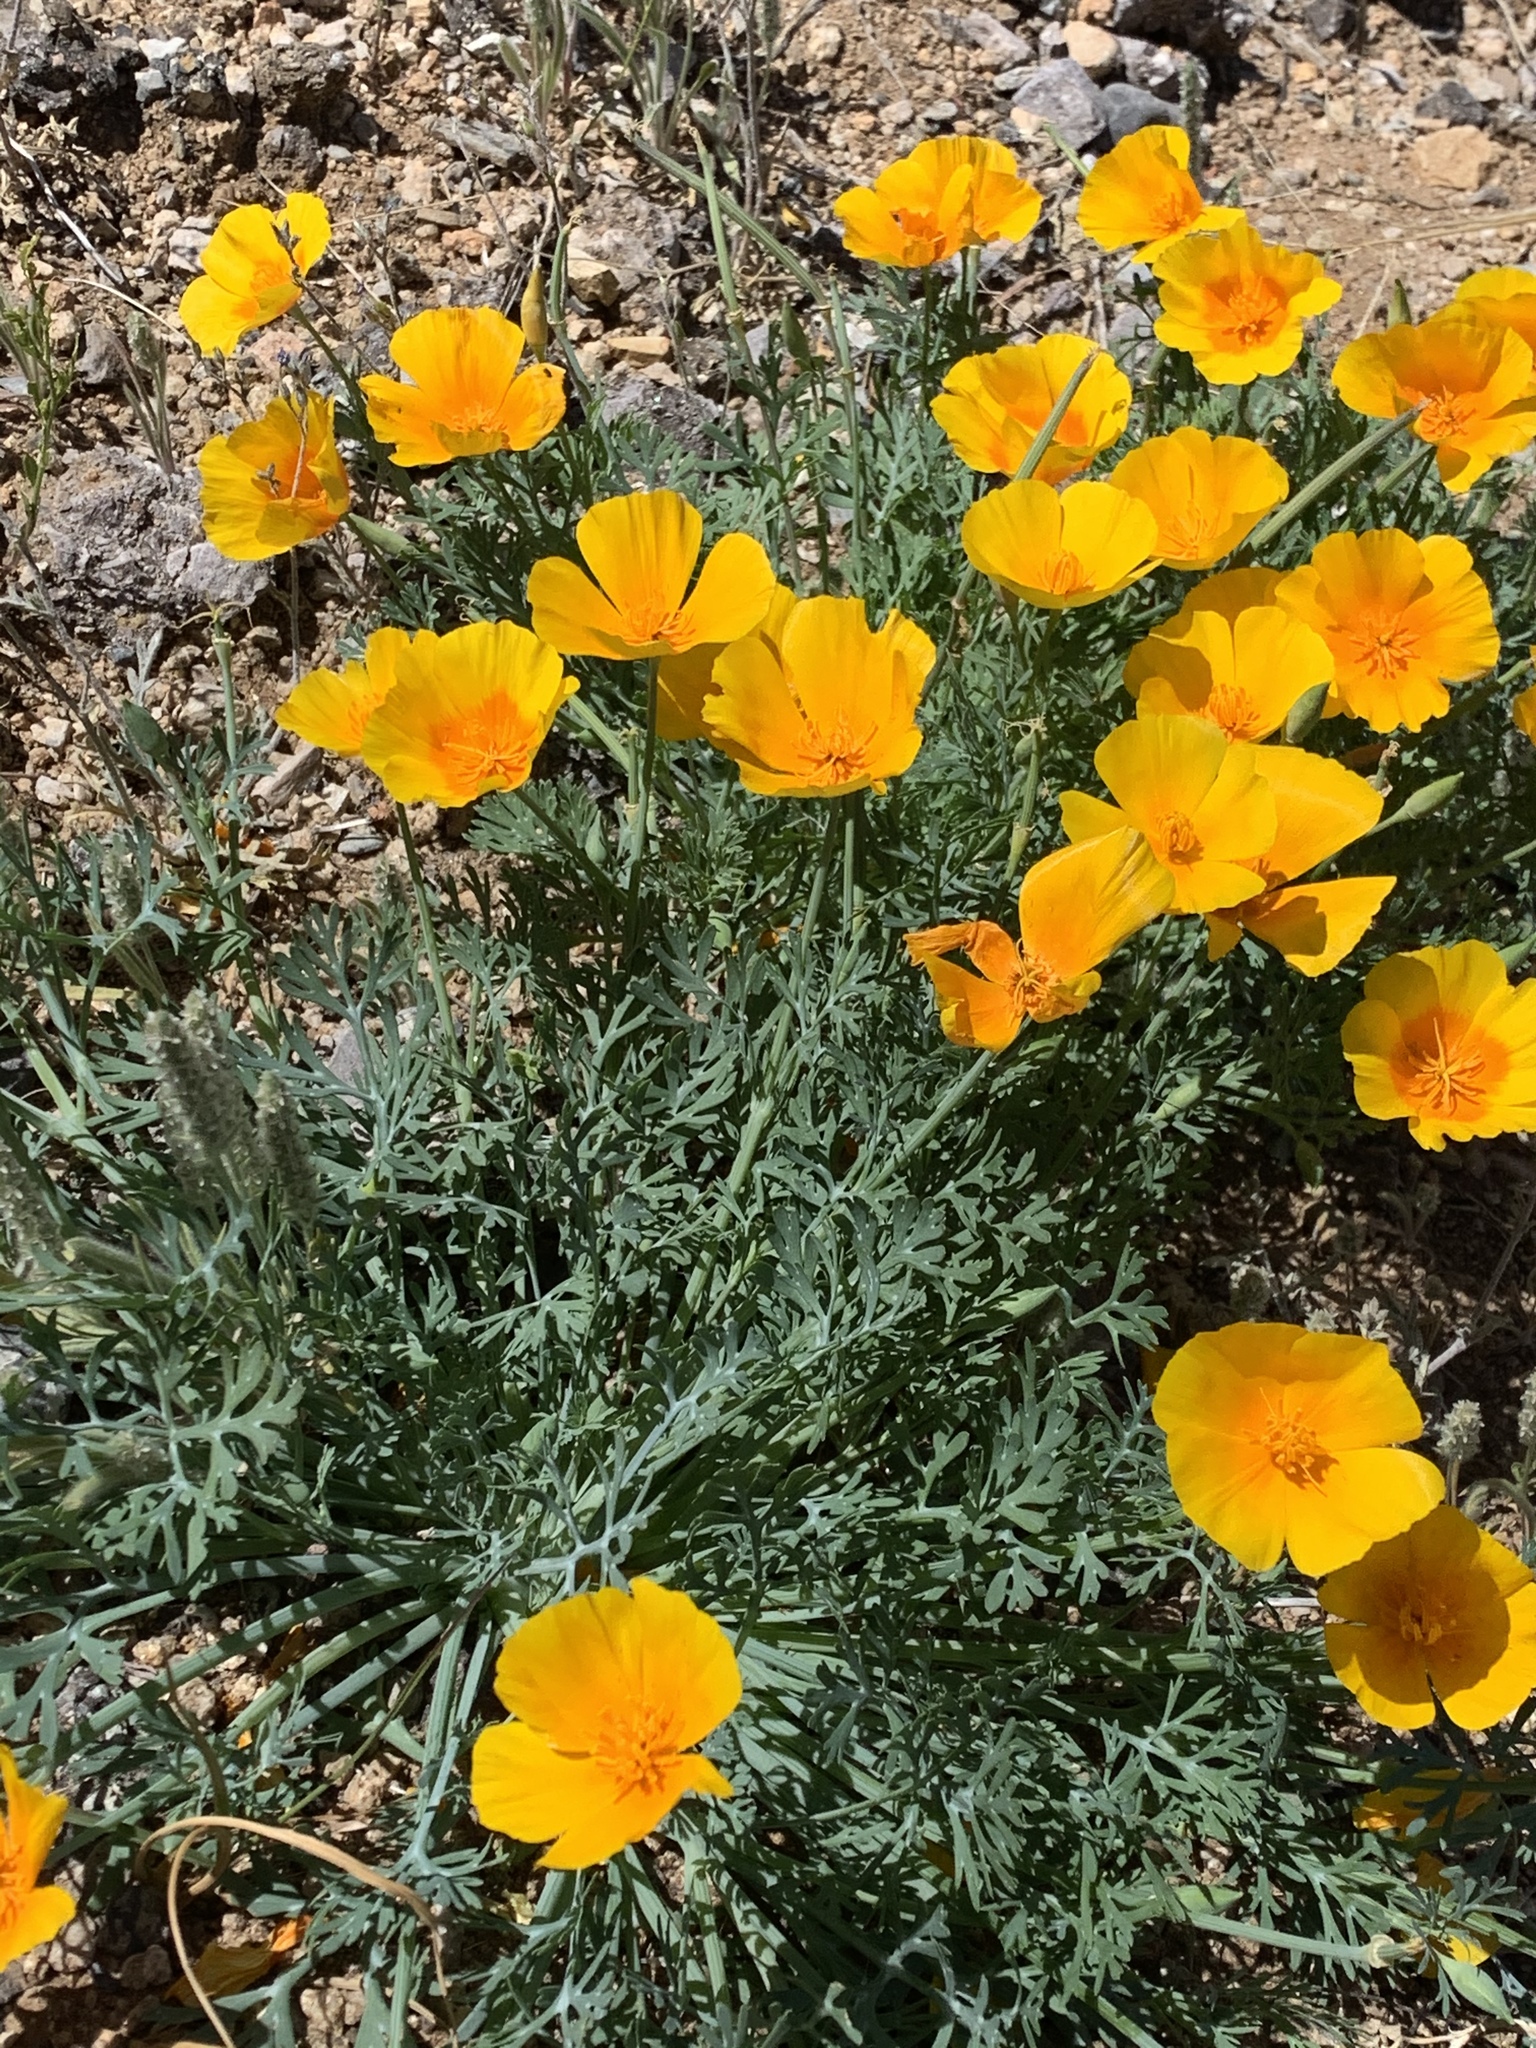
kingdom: Plantae
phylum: Tracheophyta
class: Magnoliopsida
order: Ranunculales
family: Papaveraceae
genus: Eschscholzia
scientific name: Eschscholzia californica
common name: California poppy
